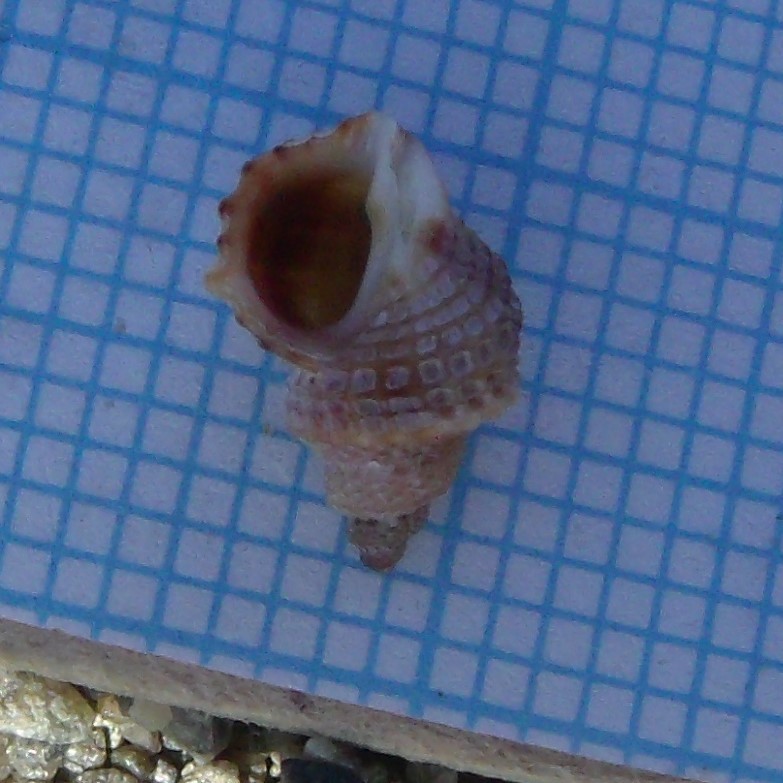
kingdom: Animalia
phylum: Mollusca
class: Gastropoda
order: Littorinimorpha
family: Capulidae
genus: Trichosirius
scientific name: Trichosirius inornatus
